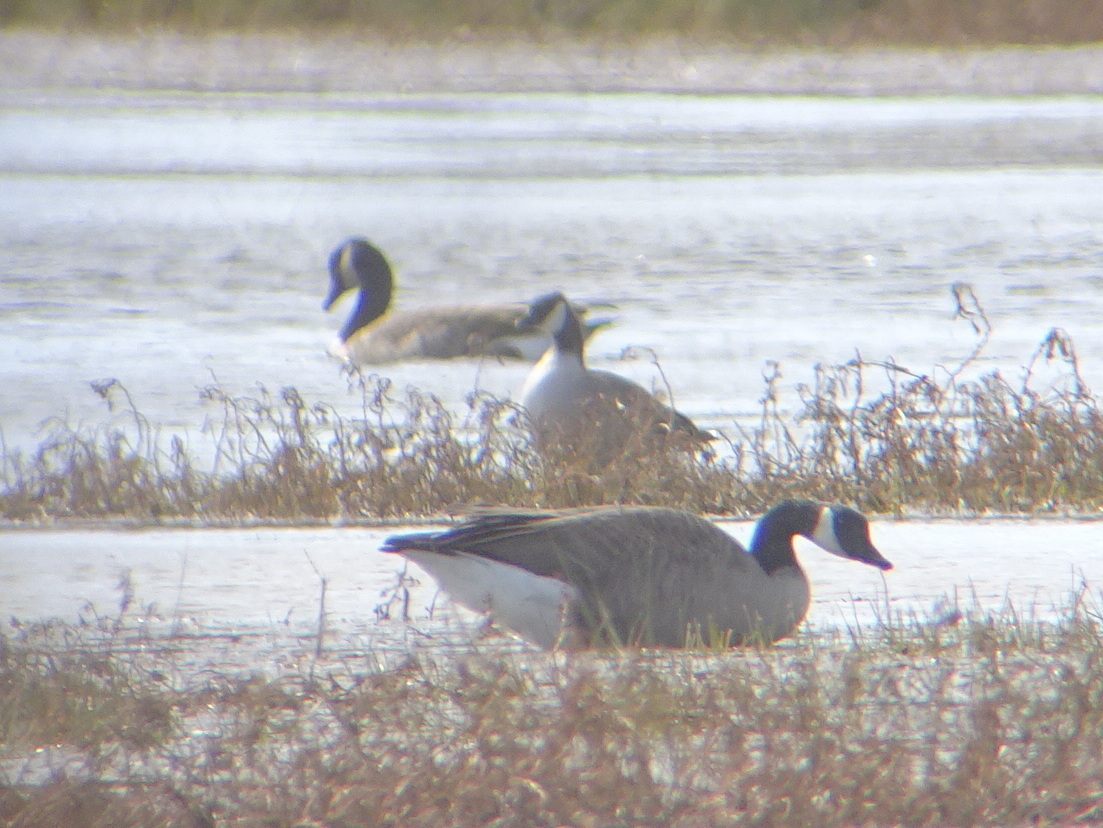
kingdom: Animalia
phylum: Chordata
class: Aves
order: Anseriformes
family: Anatidae
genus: Branta
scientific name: Branta hutchinsii
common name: Cackling goose
